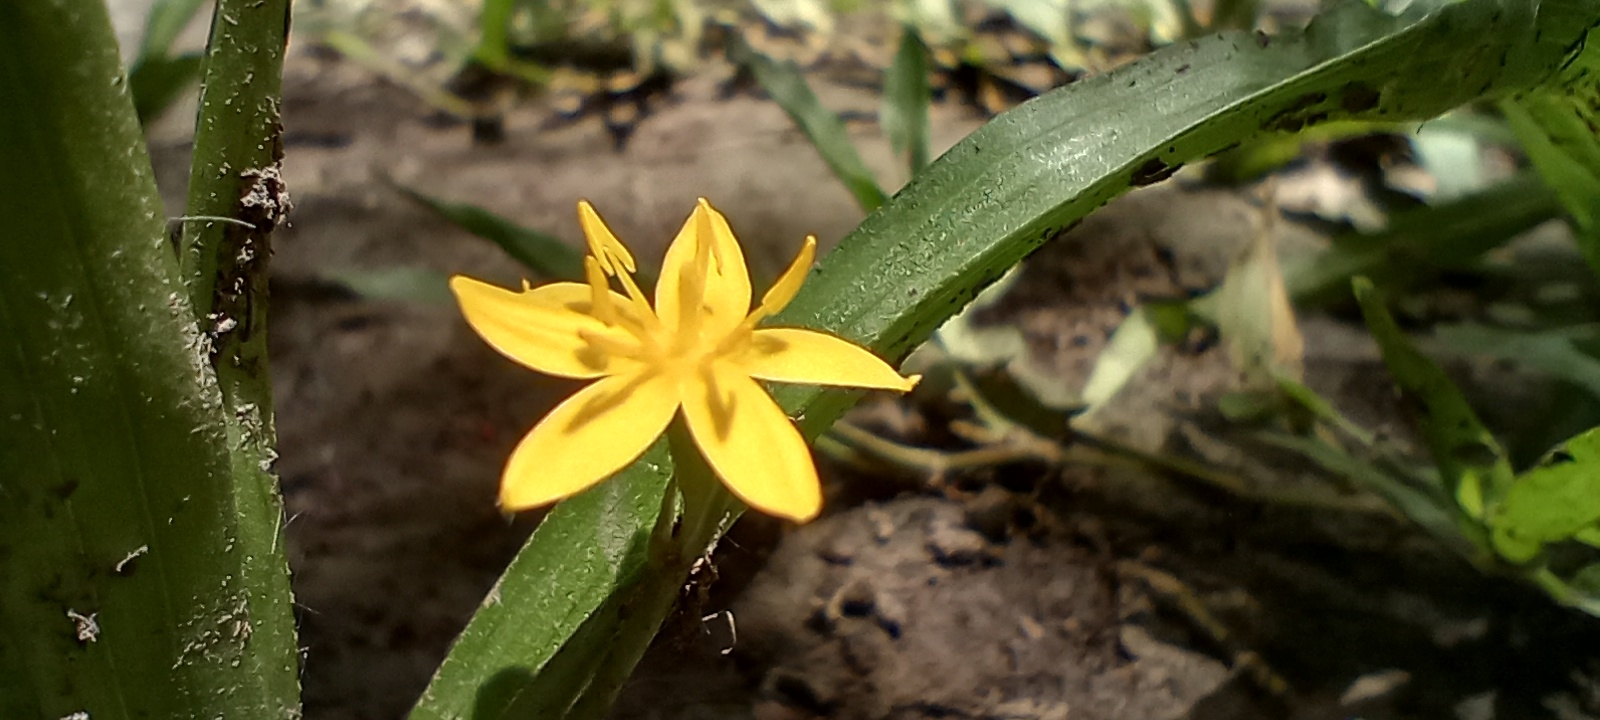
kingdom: Plantae
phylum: Tracheophyta
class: Liliopsida
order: Asparagales
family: Hypoxidaceae
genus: Hypoxis
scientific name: Hypoxis decumbens
